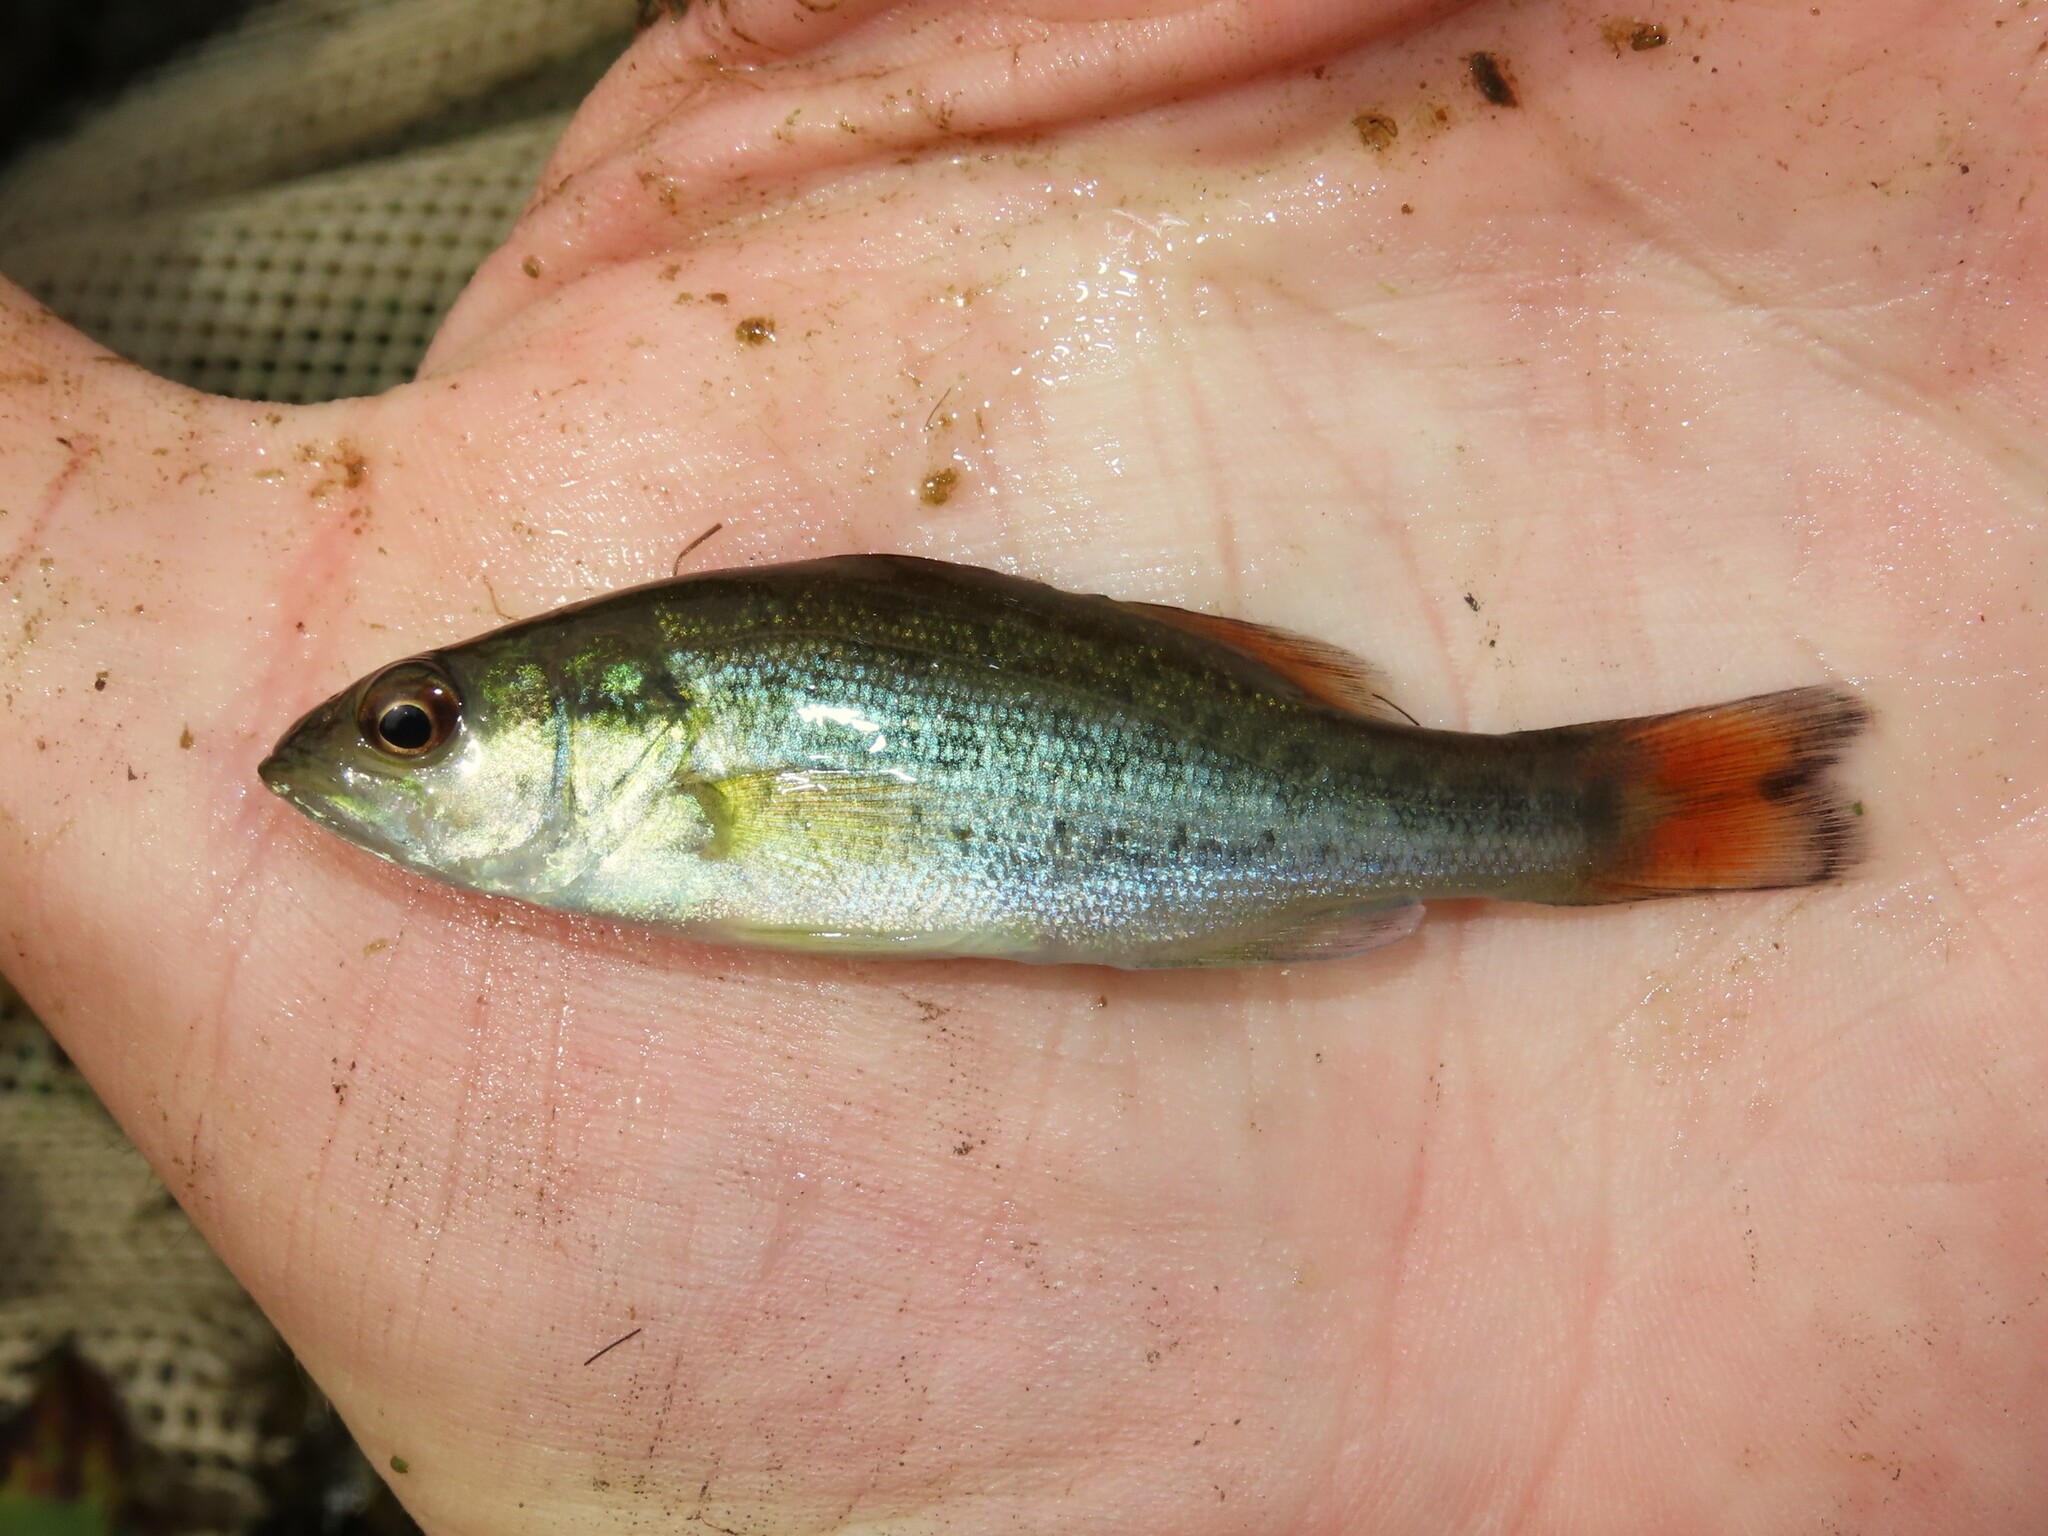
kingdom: Animalia
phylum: Chordata
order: Perciformes
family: Centrarchidae
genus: Micropterus
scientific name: Micropterus
